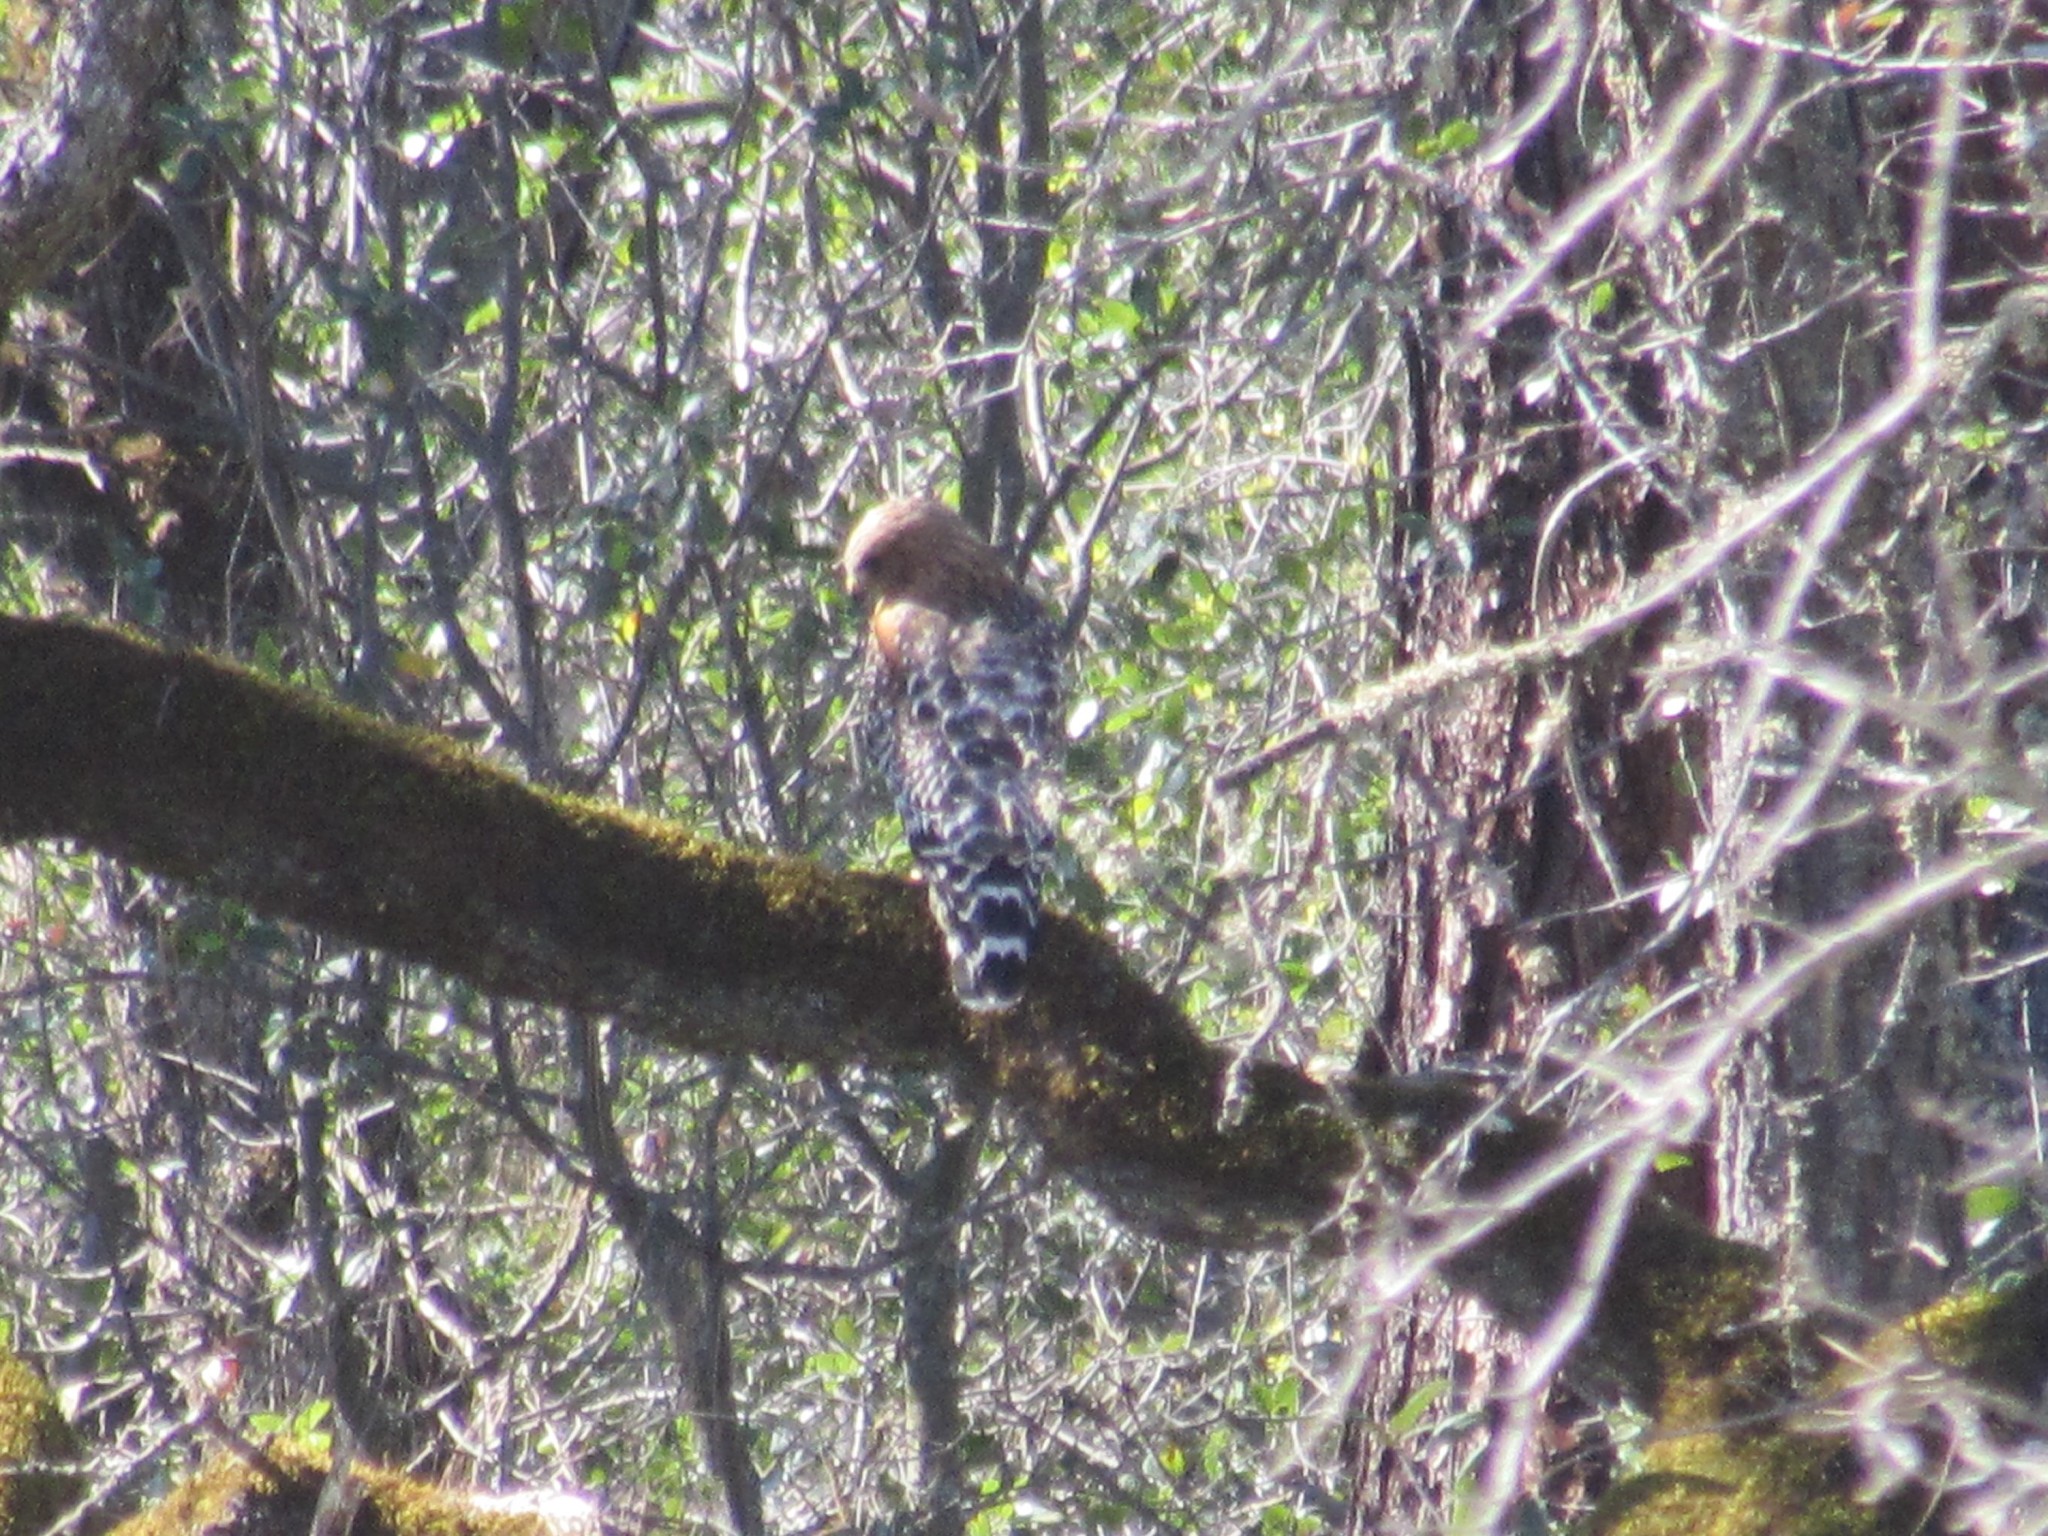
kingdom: Animalia
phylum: Chordata
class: Aves
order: Accipitriformes
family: Accipitridae
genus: Buteo
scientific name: Buteo lineatus
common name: Red-shouldered hawk
